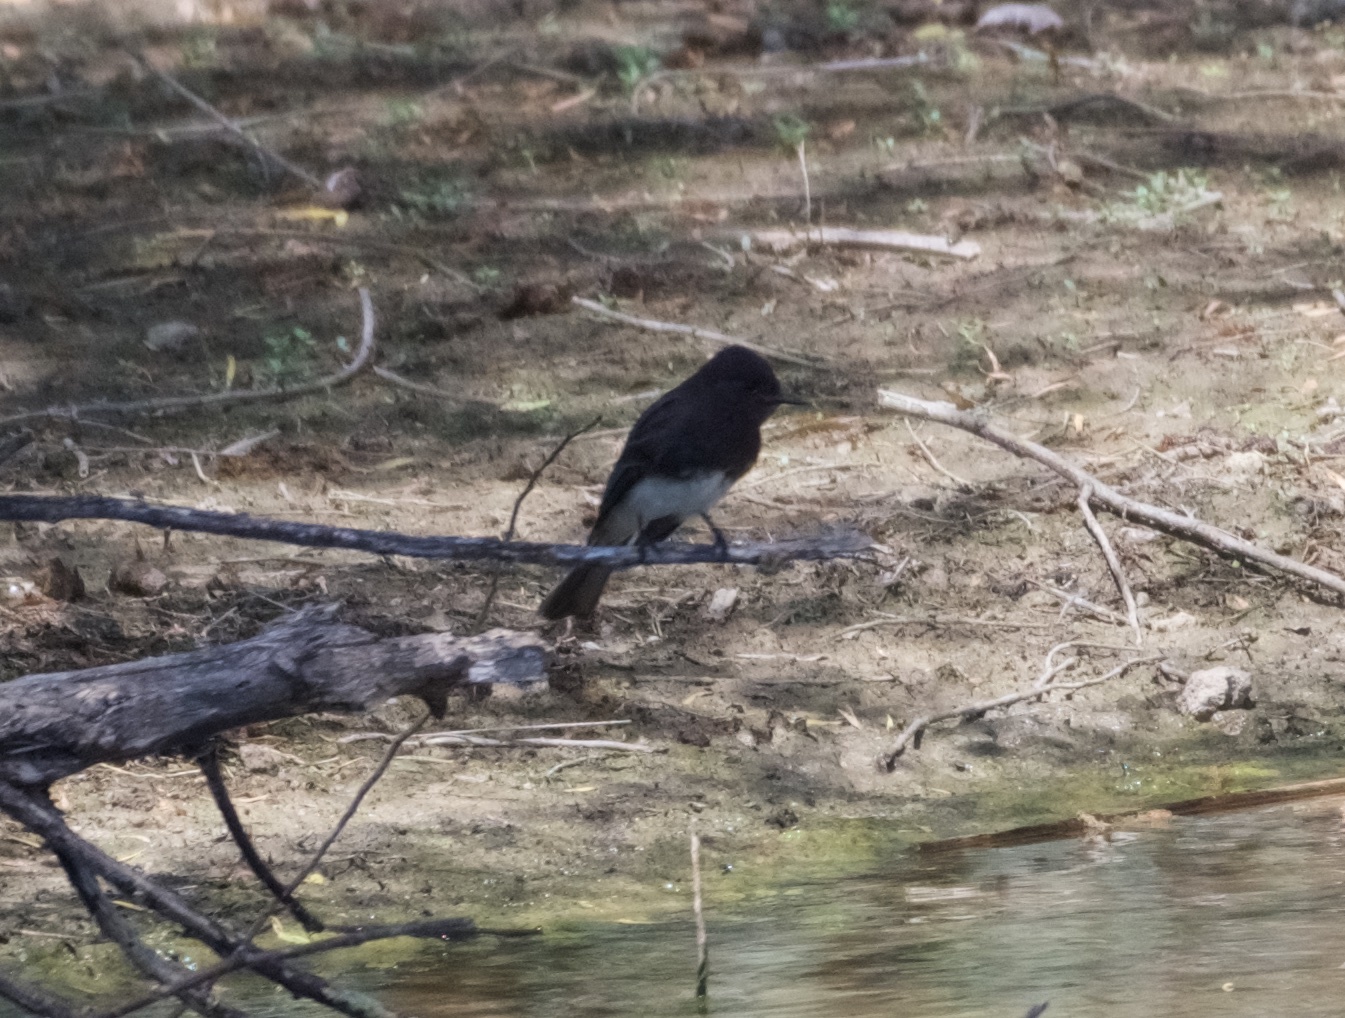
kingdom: Animalia
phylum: Chordata
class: Aves
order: Passeriformes
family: Tyrannidae
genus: Sayornis
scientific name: Sayornis nigricans
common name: Black phoebe
